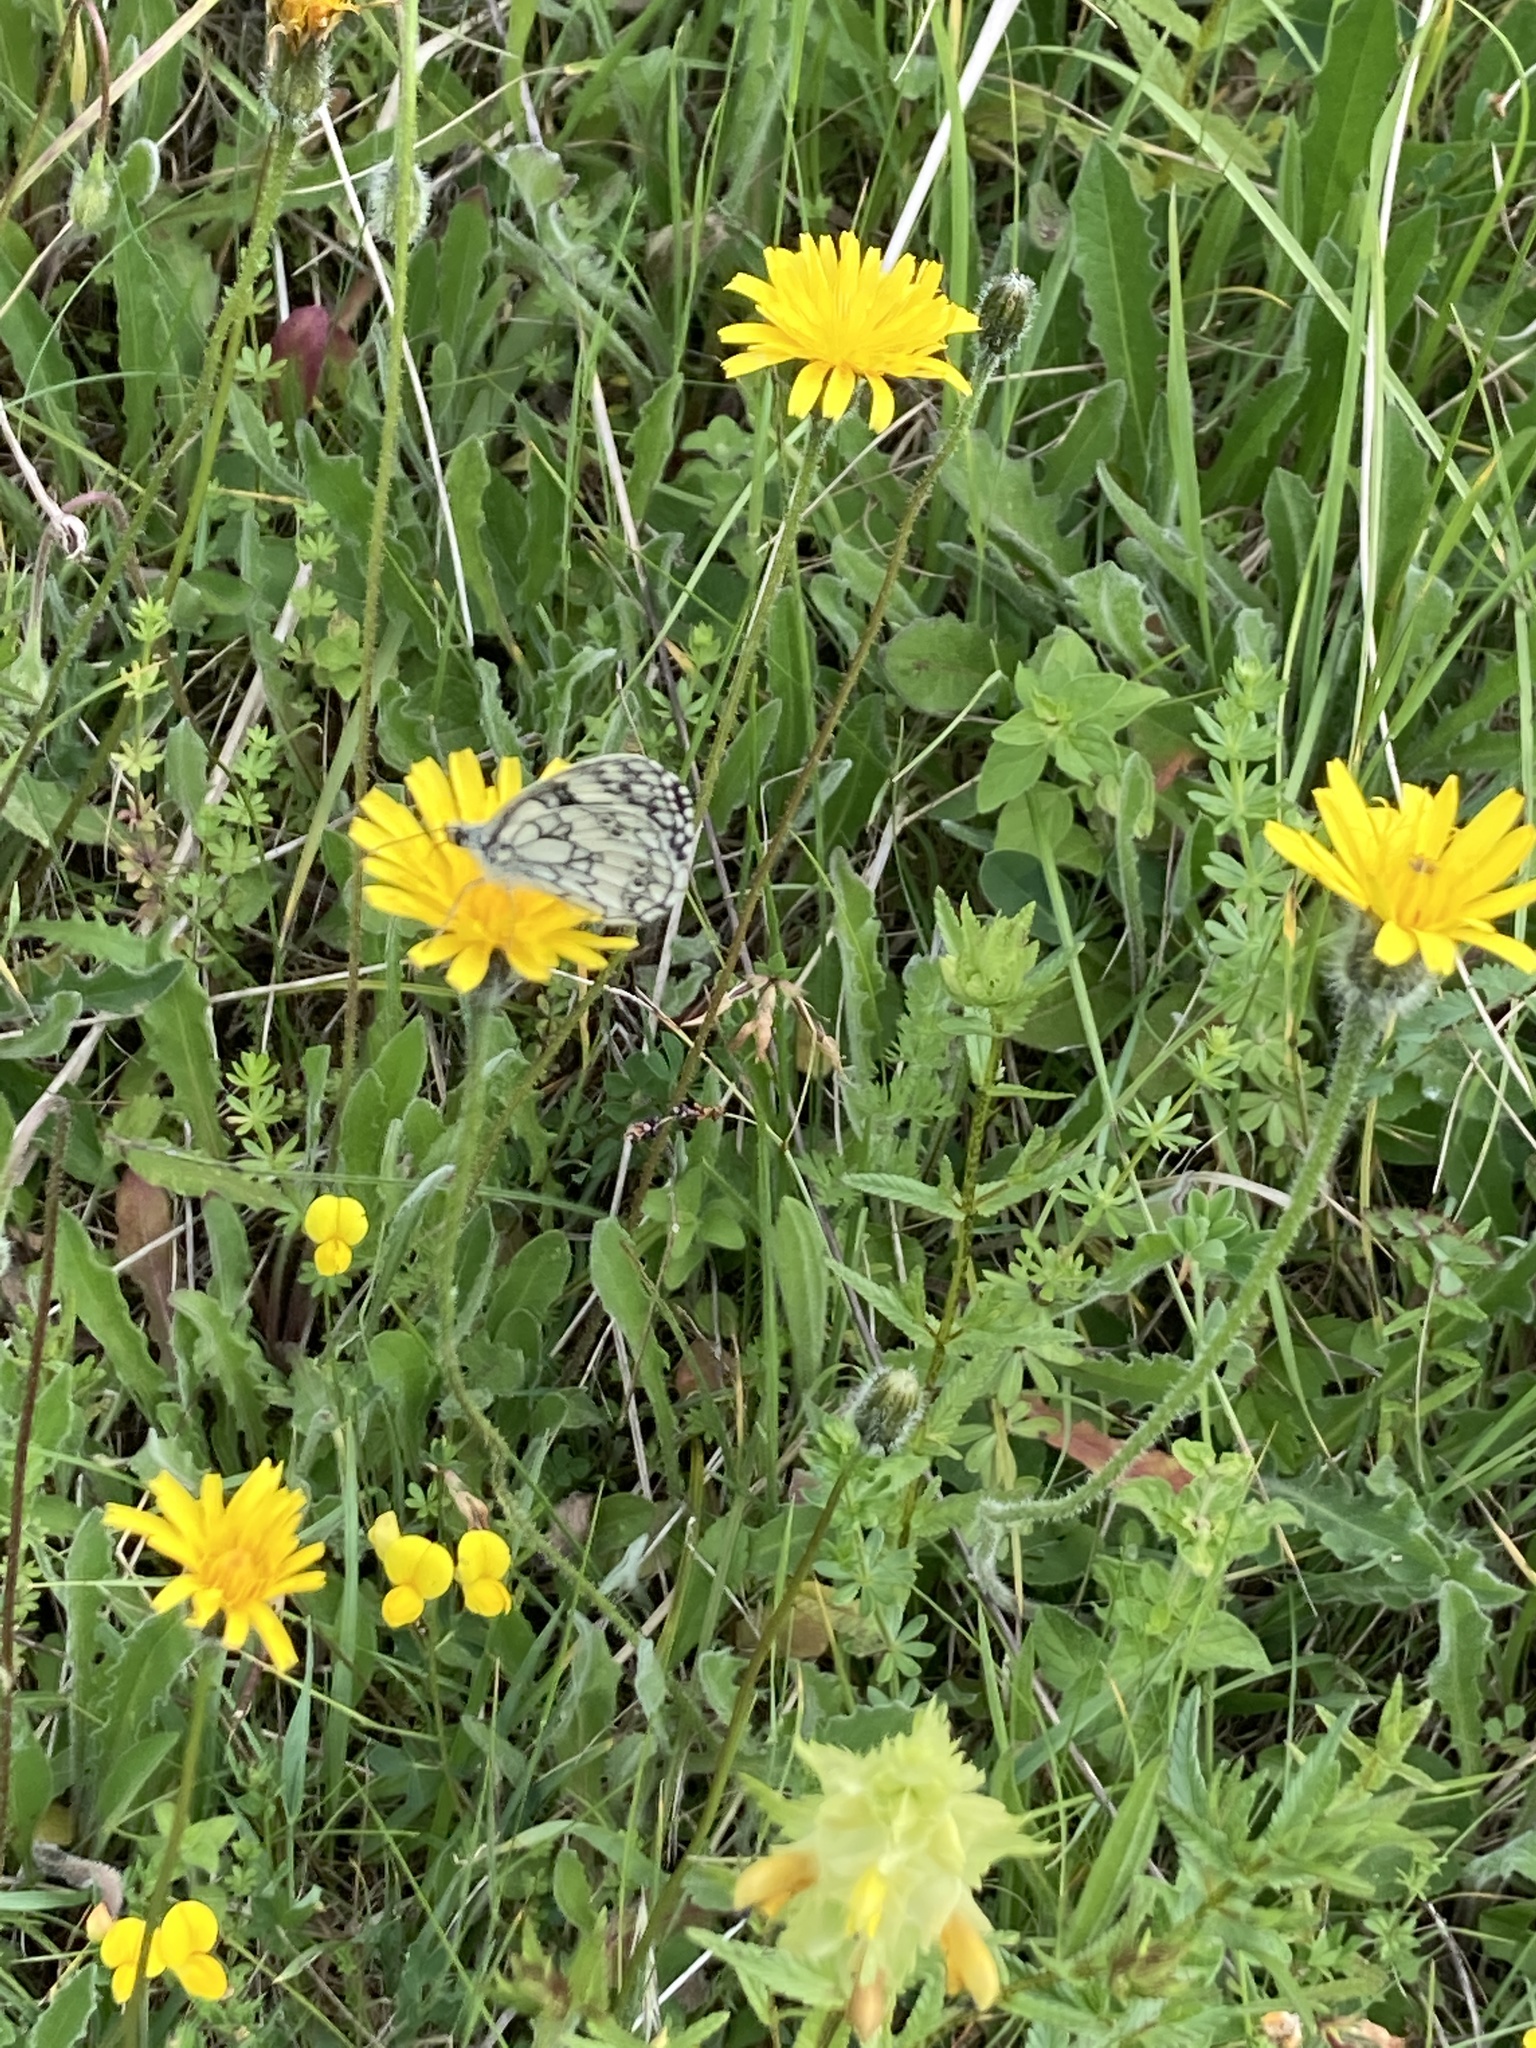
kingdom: Animalia
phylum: Arthropoda
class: Insecta
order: Lepidoptera
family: Nymphalidae
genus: Melanargia
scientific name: Melanargia galathea
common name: Marbled white
